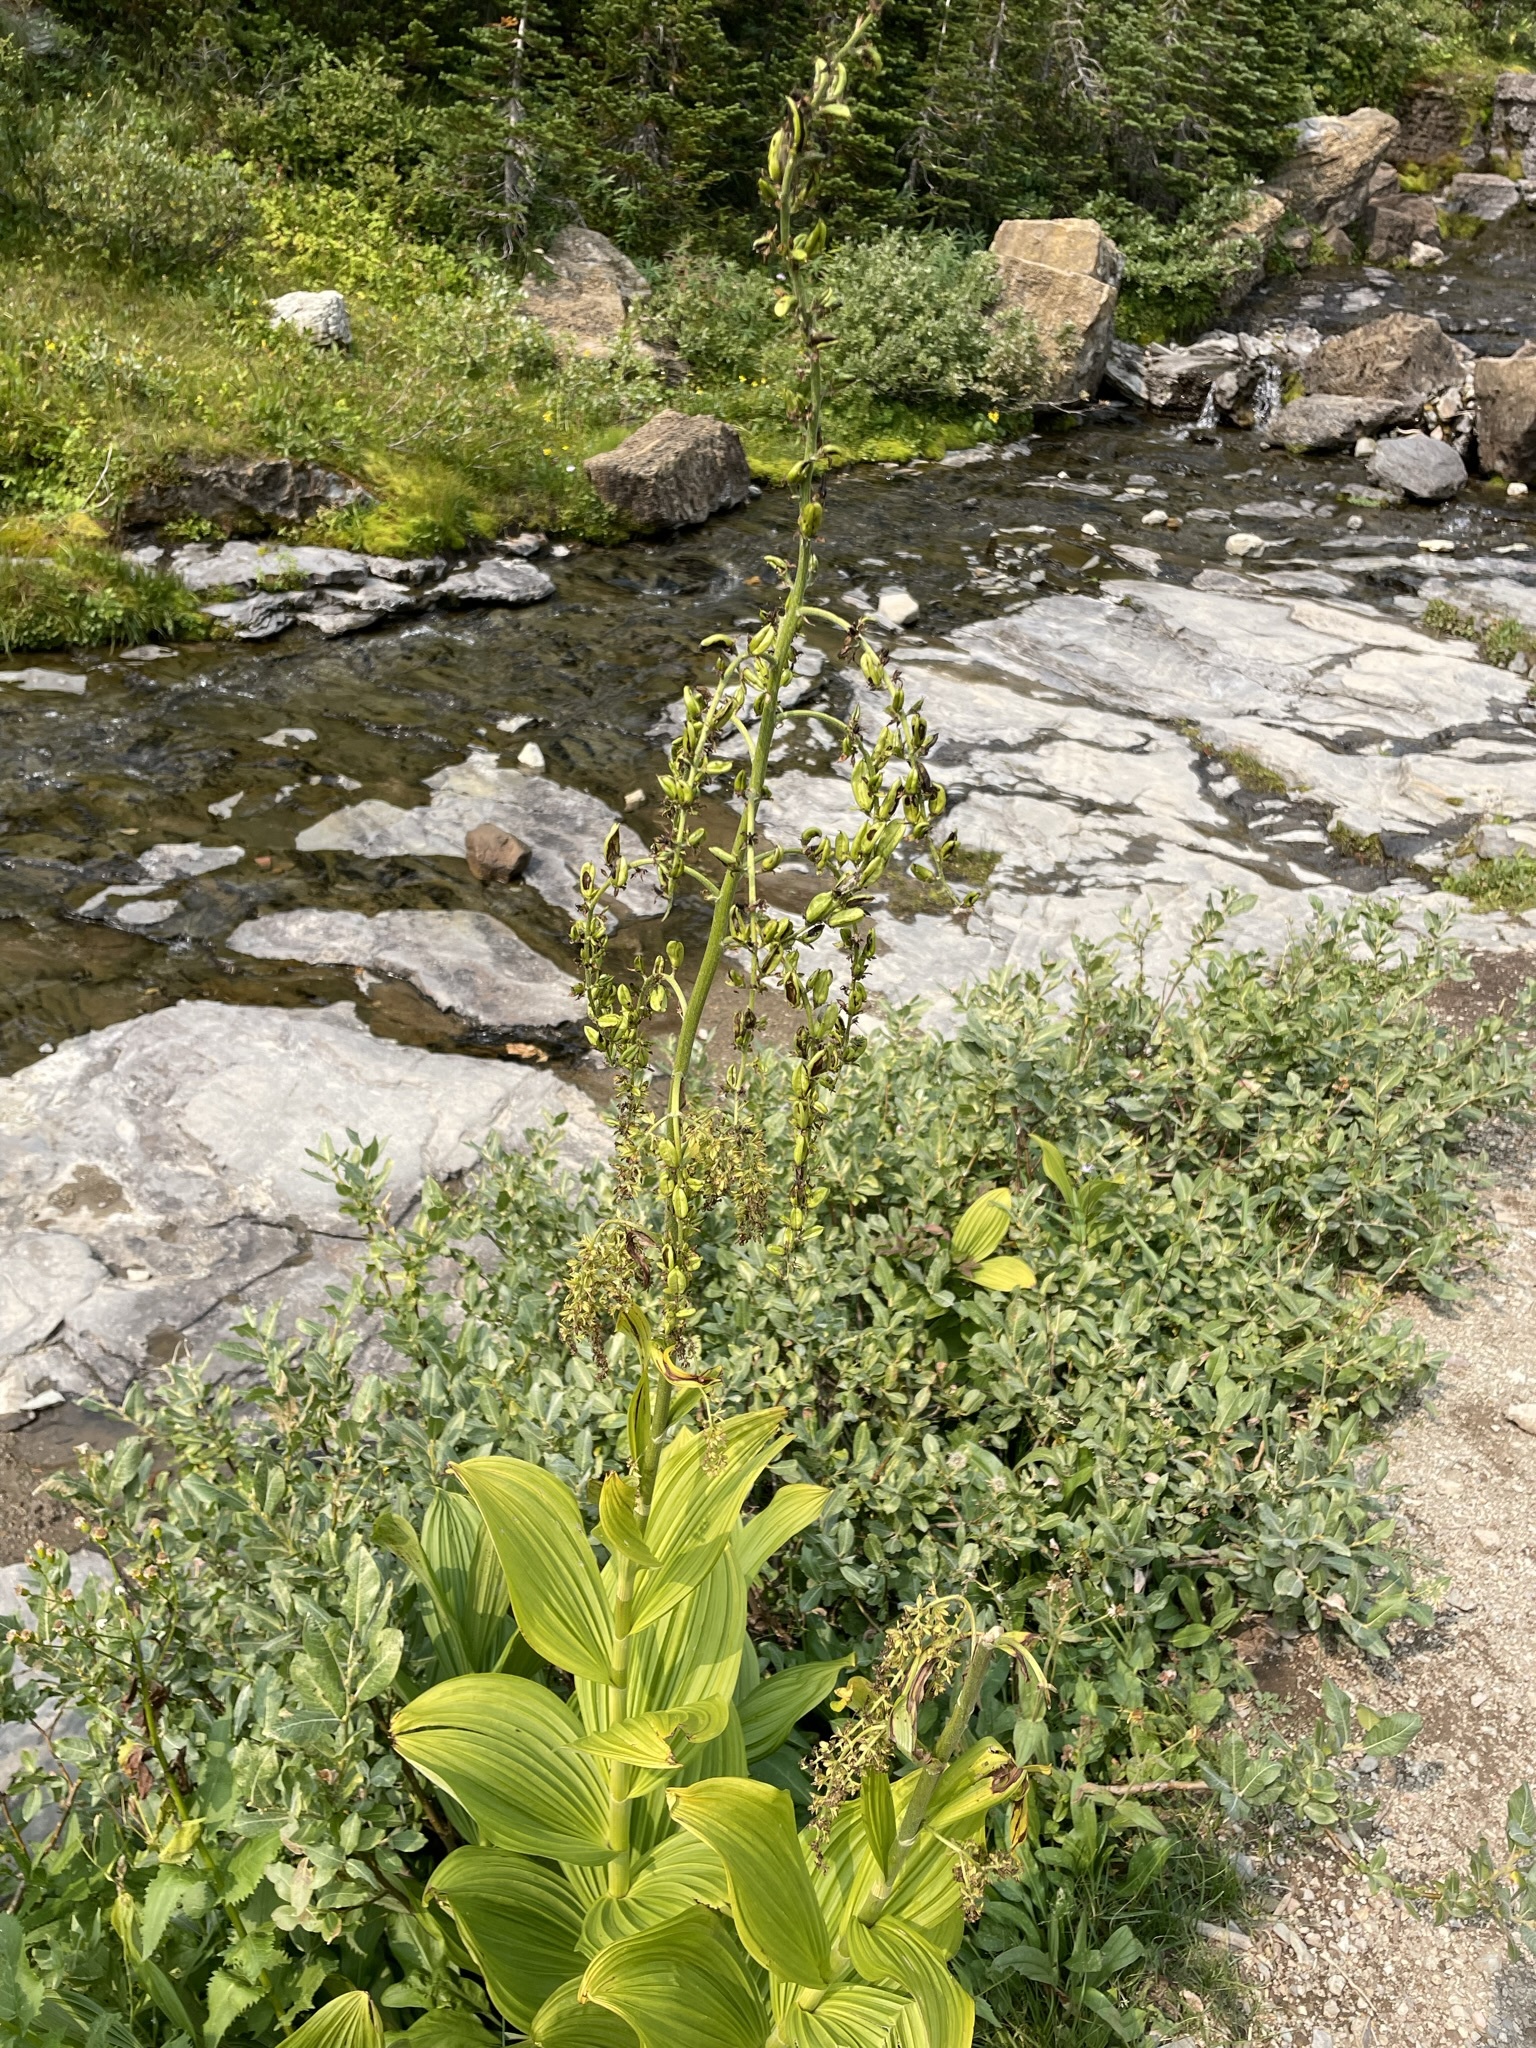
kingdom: Plantae
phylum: Tracheophyta
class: Liliopsida
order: Liliales
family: Melanthiaceae
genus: Veratrum
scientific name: Veratrum viride
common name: American false hellebore
